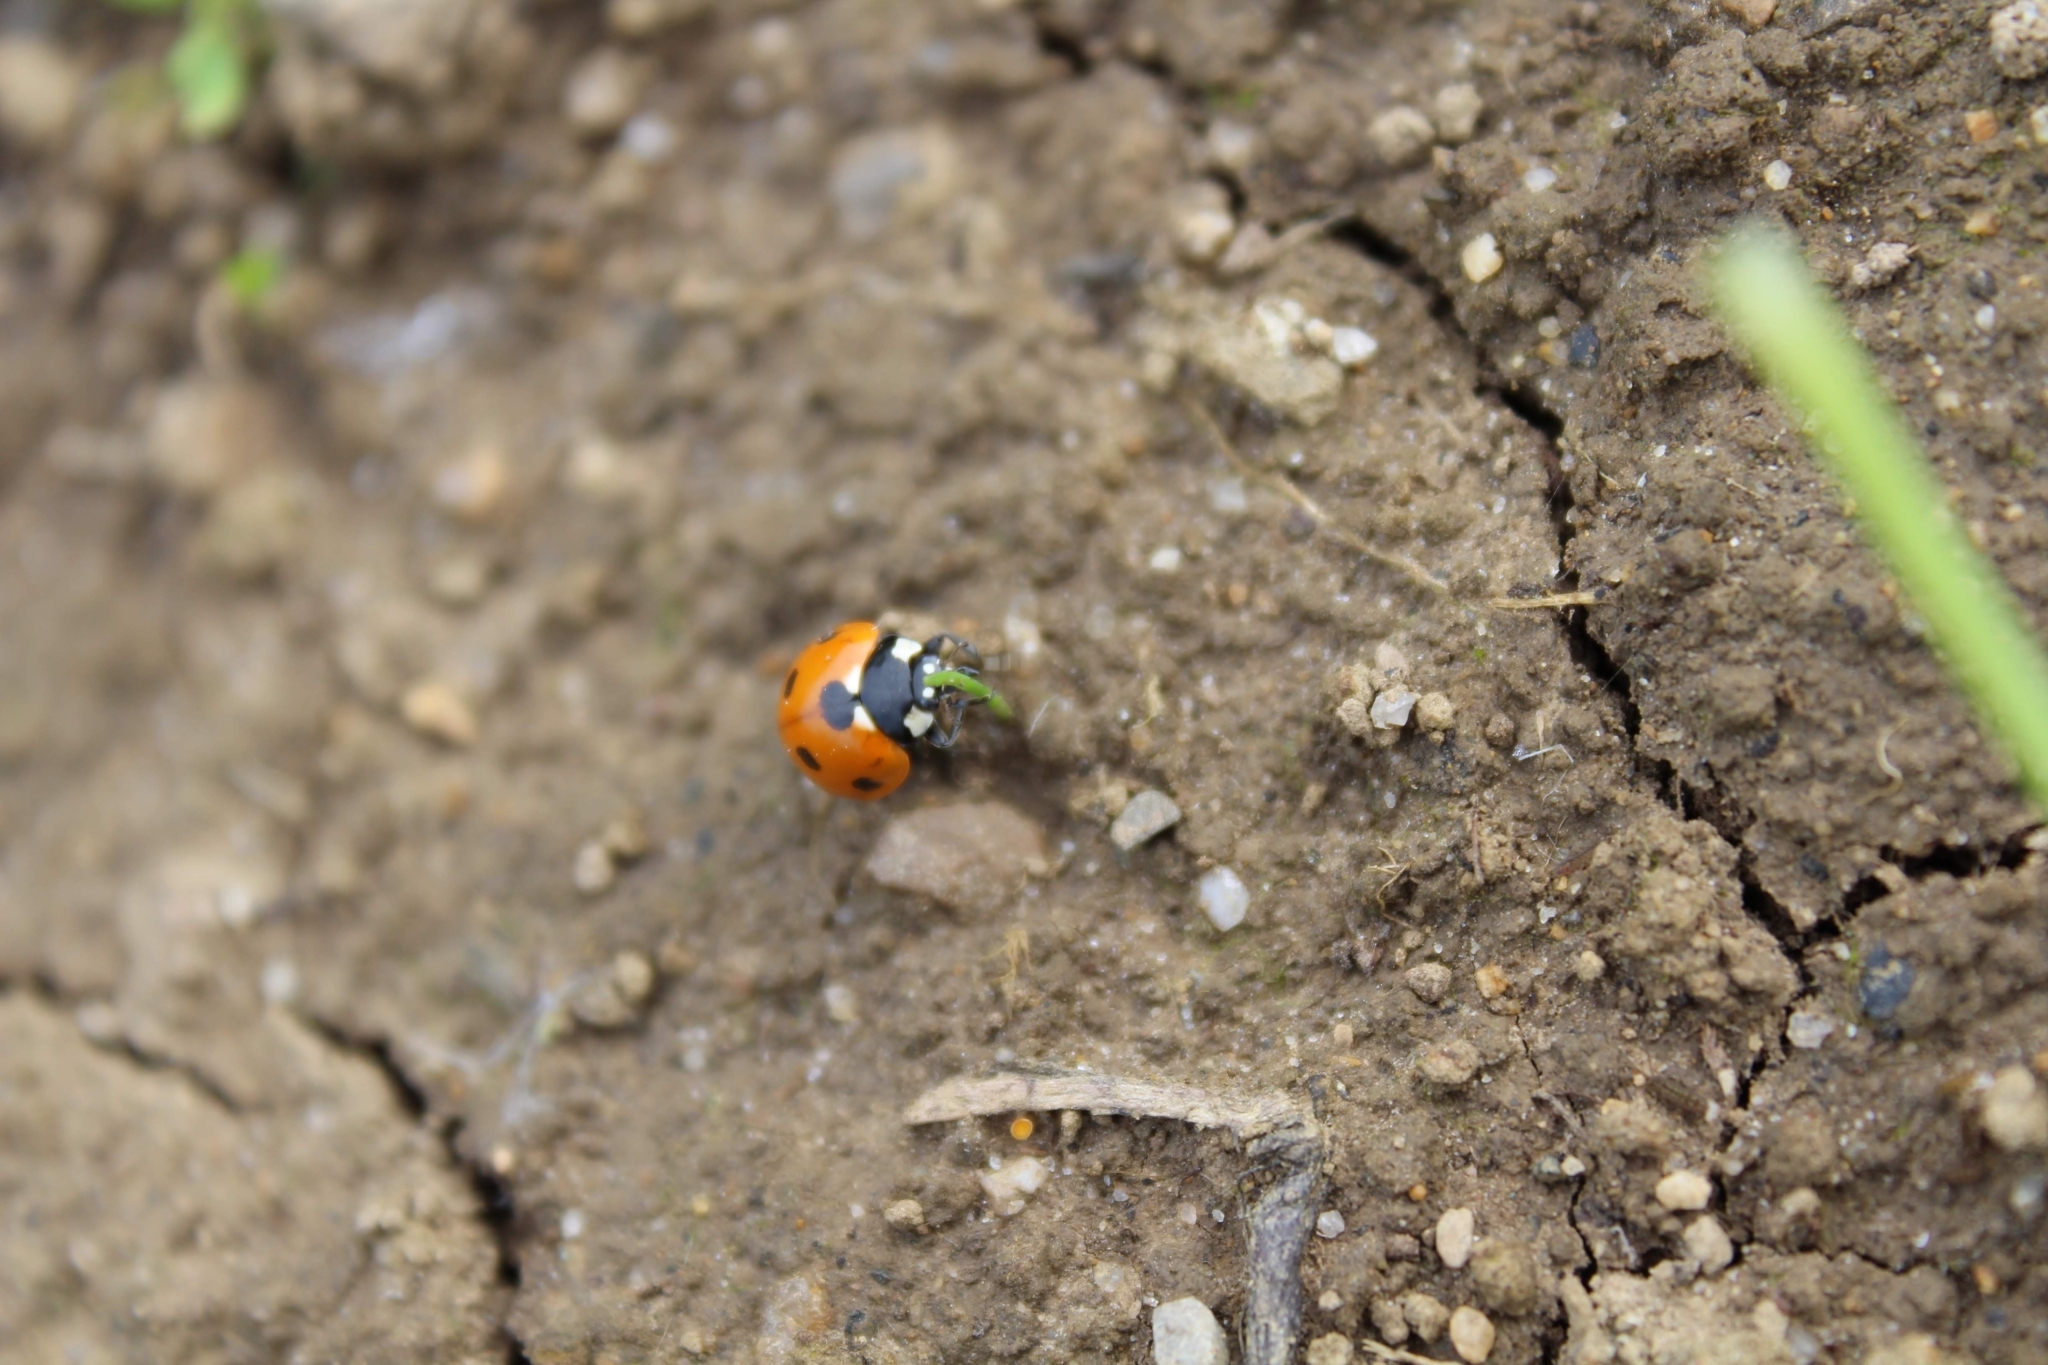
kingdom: Animalia
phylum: Arthropoda
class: Insecta
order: Coleoptera
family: Coccinellidae
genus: Coccinella
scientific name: Coccinella septempunctata
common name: Sevenspotted lady beetle
